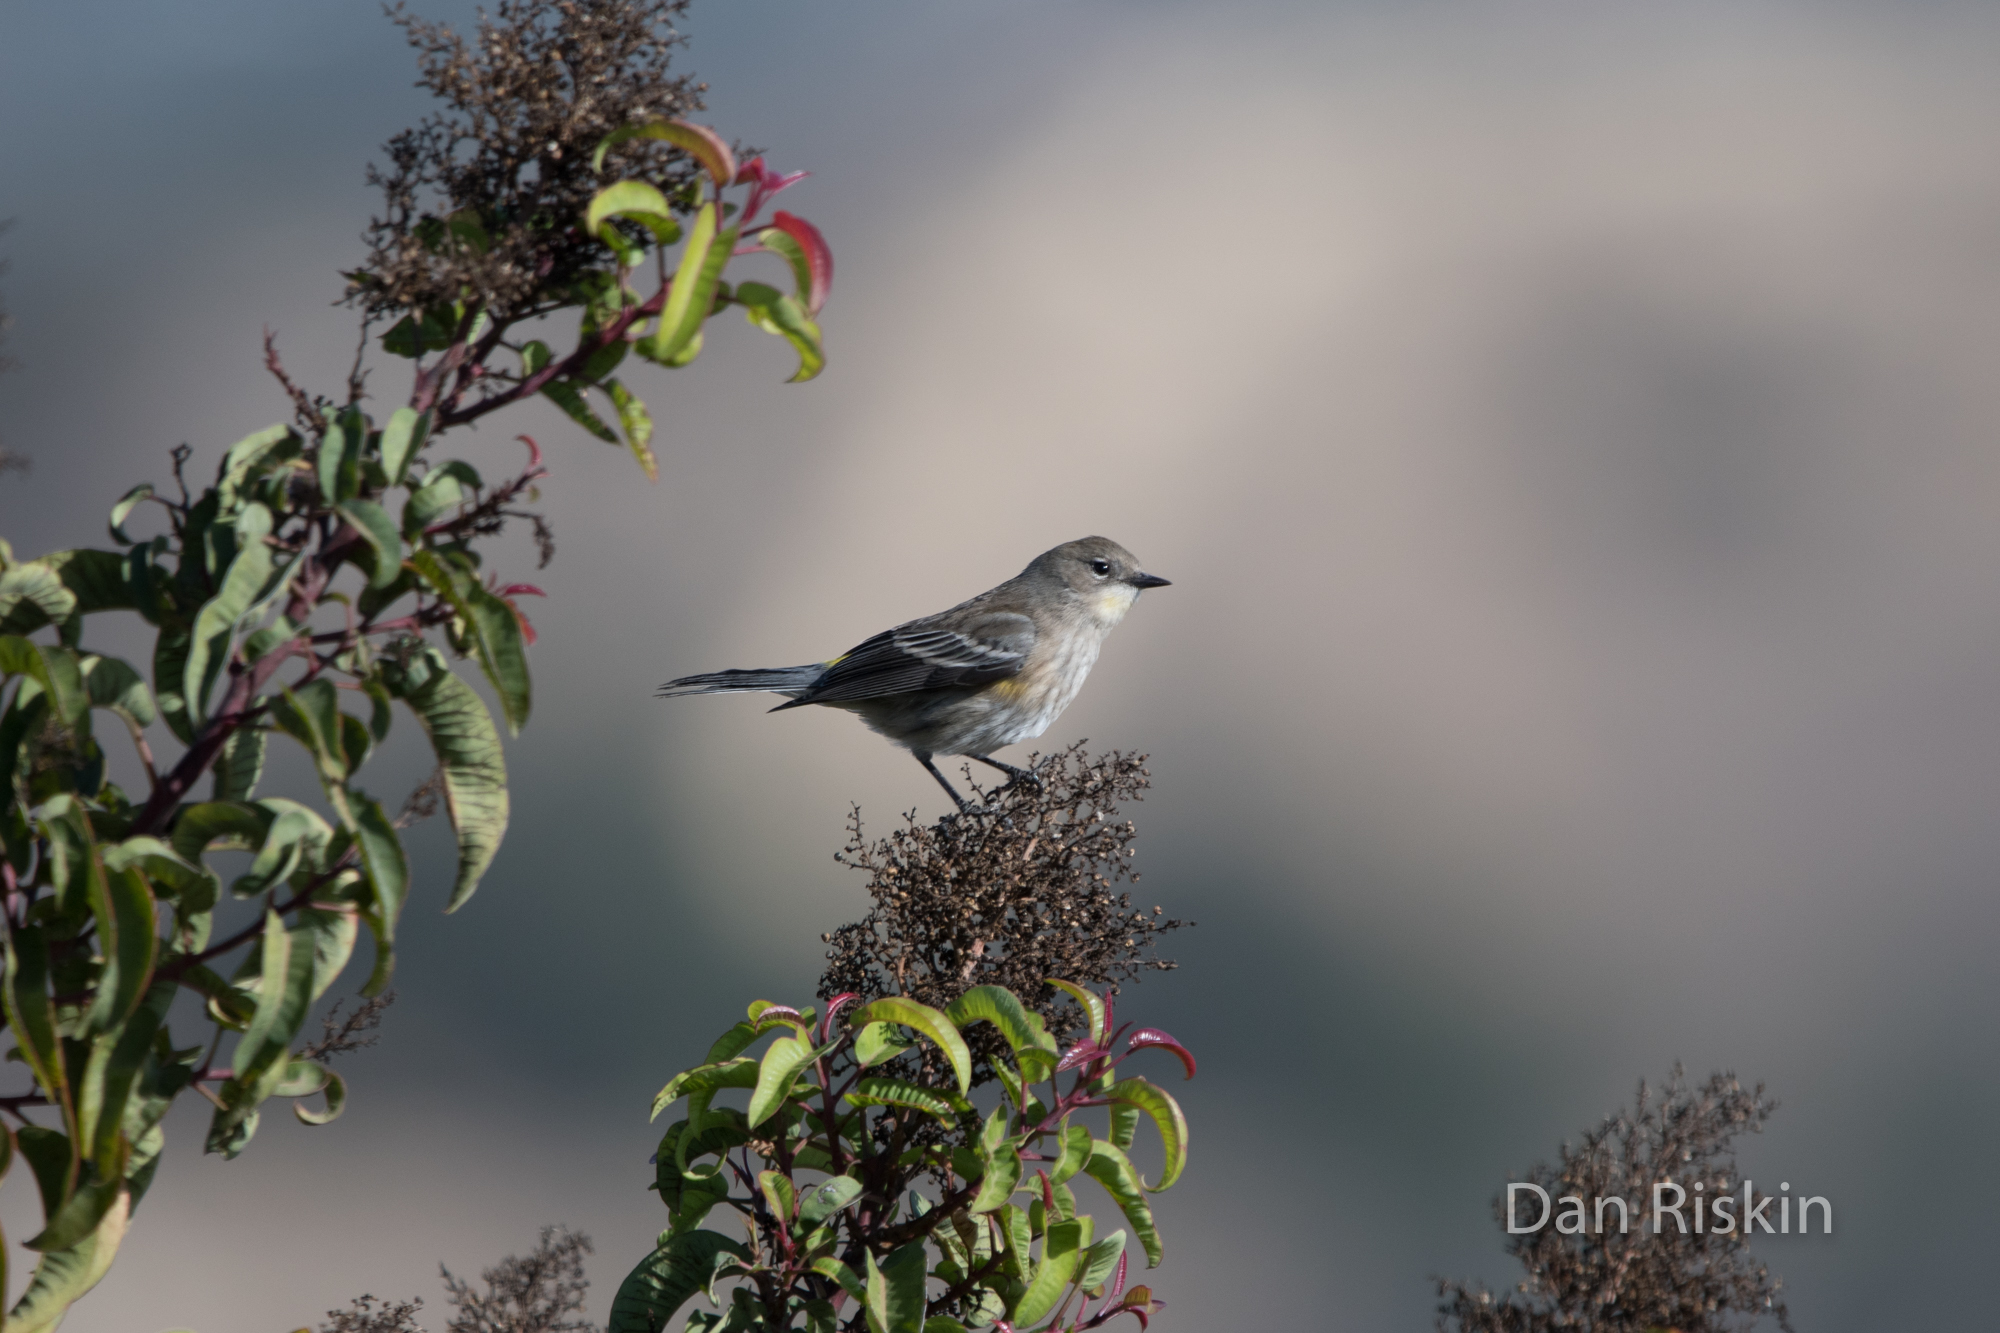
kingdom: Animalia
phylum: Chordata
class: Aves
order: Passeriformes
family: Parulidae
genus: Setophaga
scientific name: Setophaga auduboni
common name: Audubon's warbler
